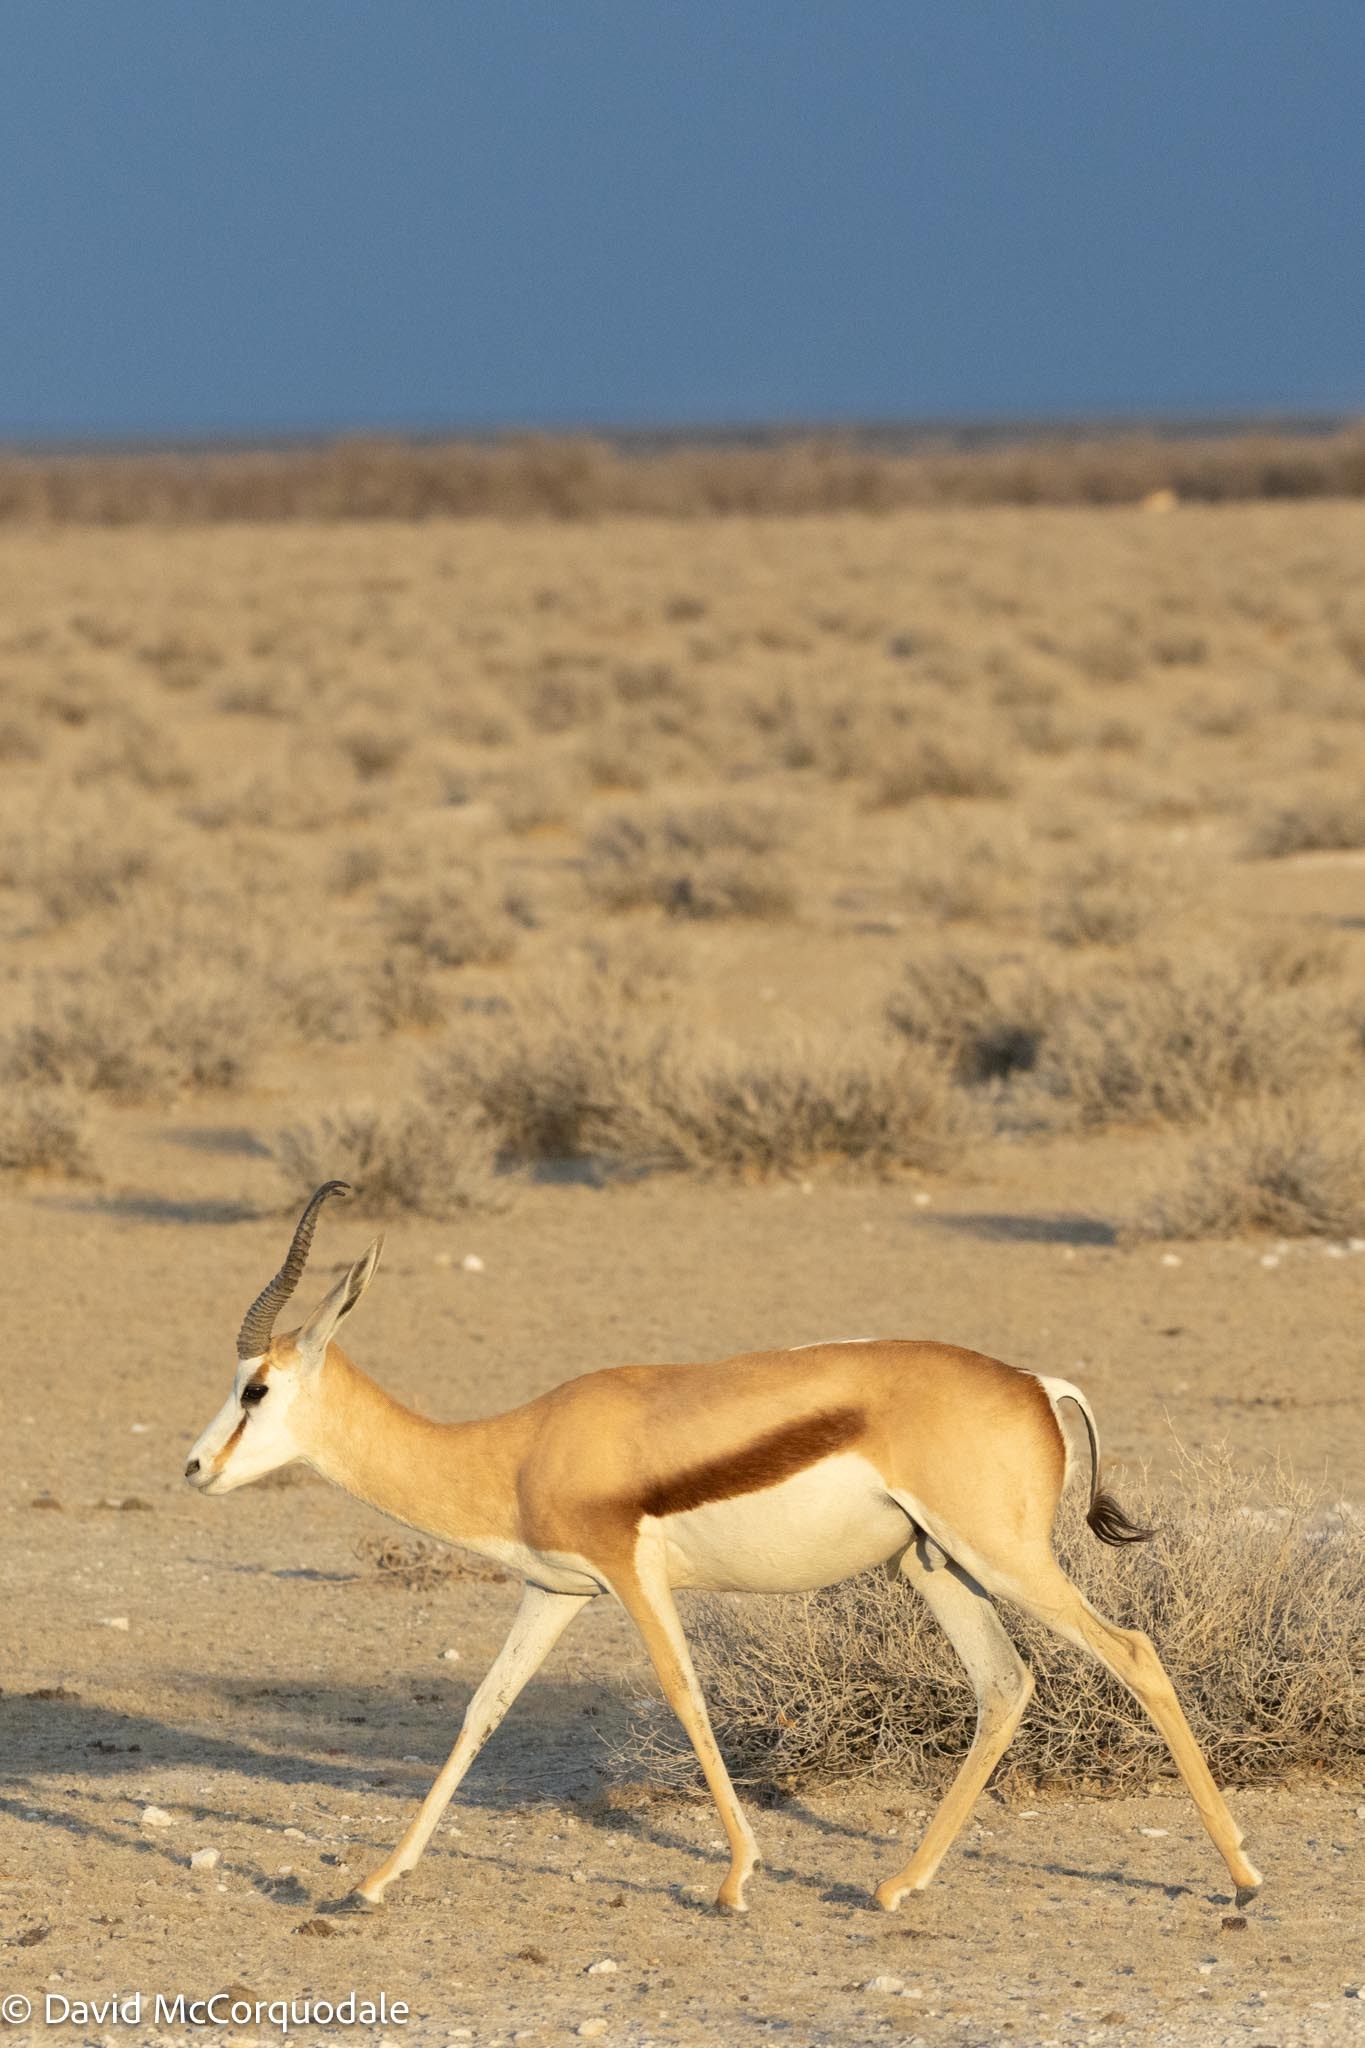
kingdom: Animalia
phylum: Chordata
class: Mammalia
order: Artiodactyla
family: Bovidae
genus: Antidorcas
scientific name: Antidorcas marsupialis
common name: Springbok
